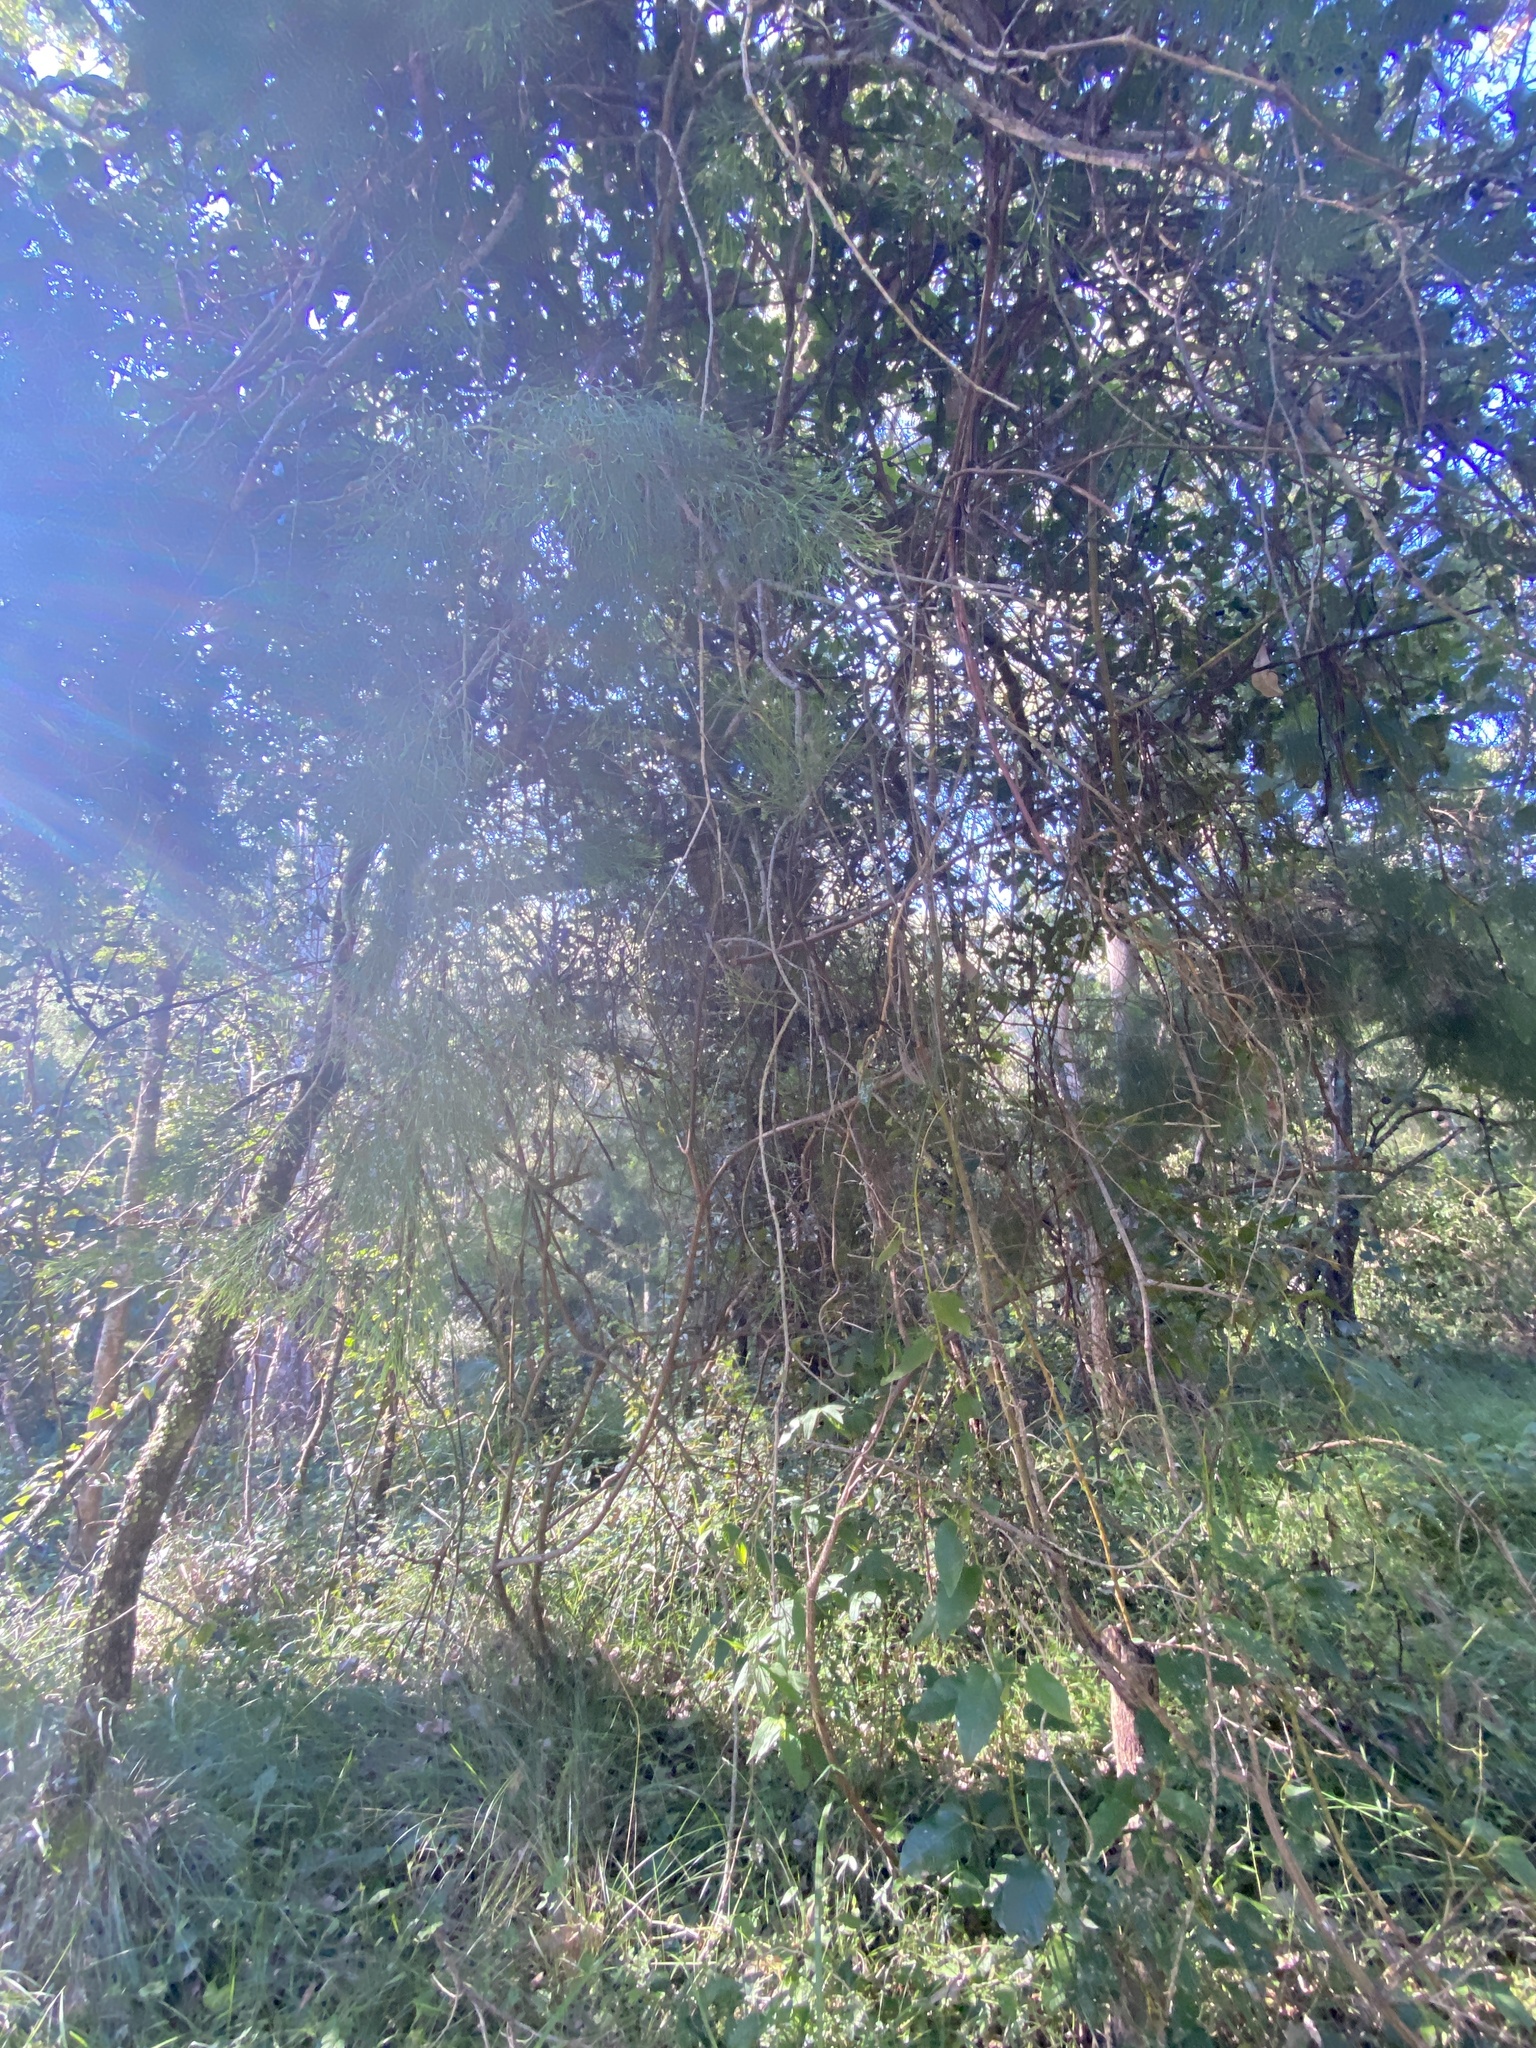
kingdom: Plantae
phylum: Tracheophyta
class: Magnoliopsida
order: Santalales
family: Santalaceae
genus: Exocarpos
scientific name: Exocarpos cupressiformis
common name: Cherry ballart
